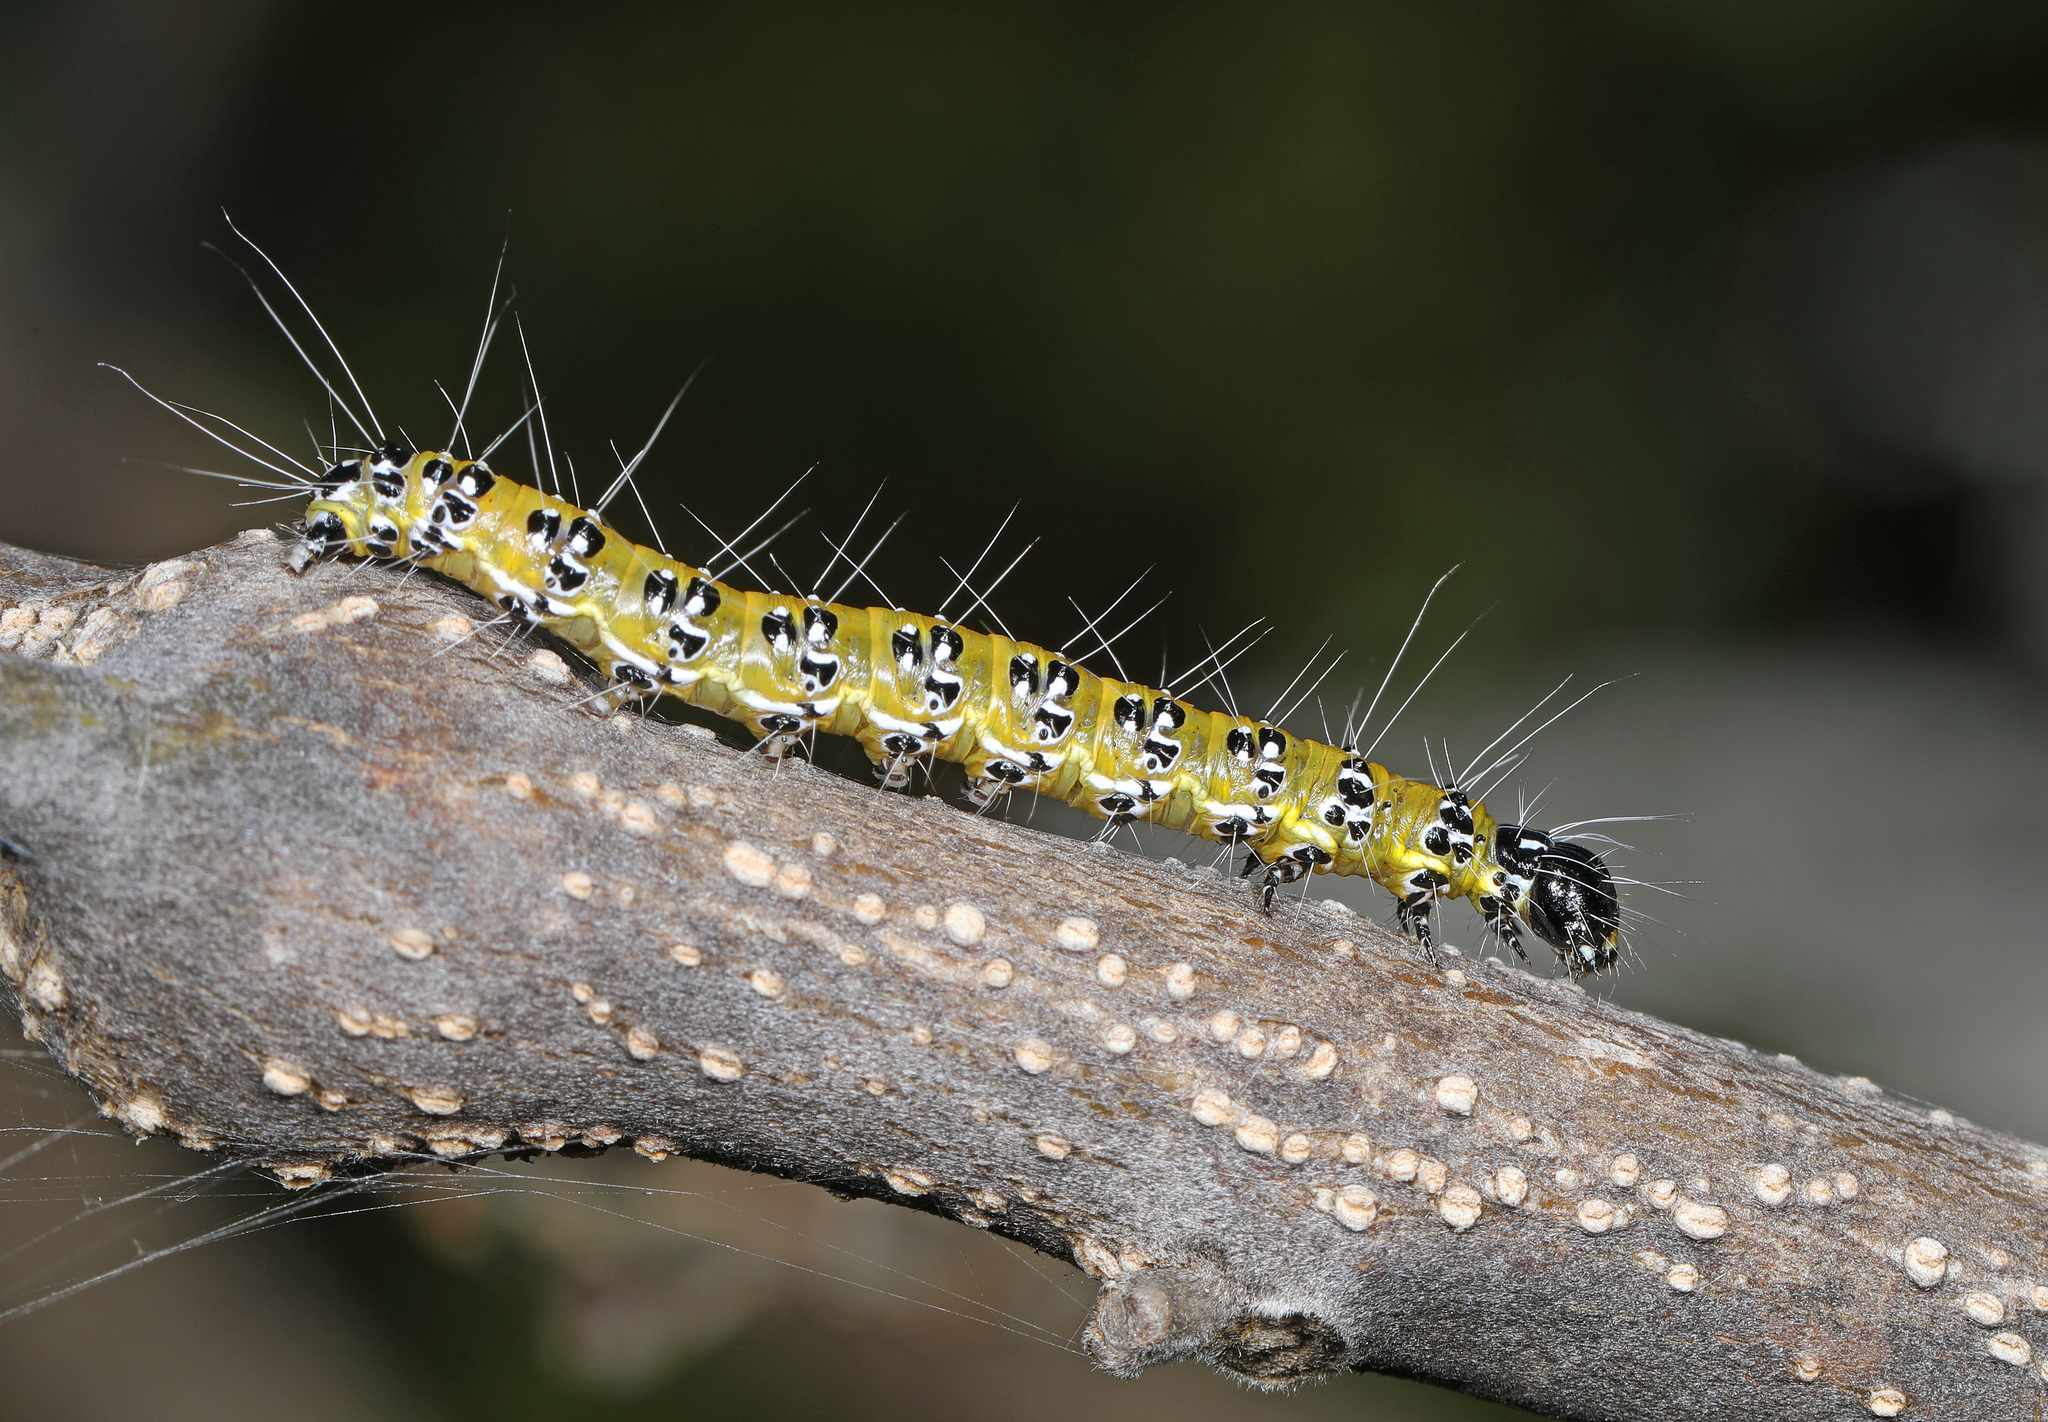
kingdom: Animalia
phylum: Arthropoda
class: Insecta
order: Lepidoptera
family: Crambidae
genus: Uresiphita
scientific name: Uresiphita reversalis
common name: Genista broom moth
